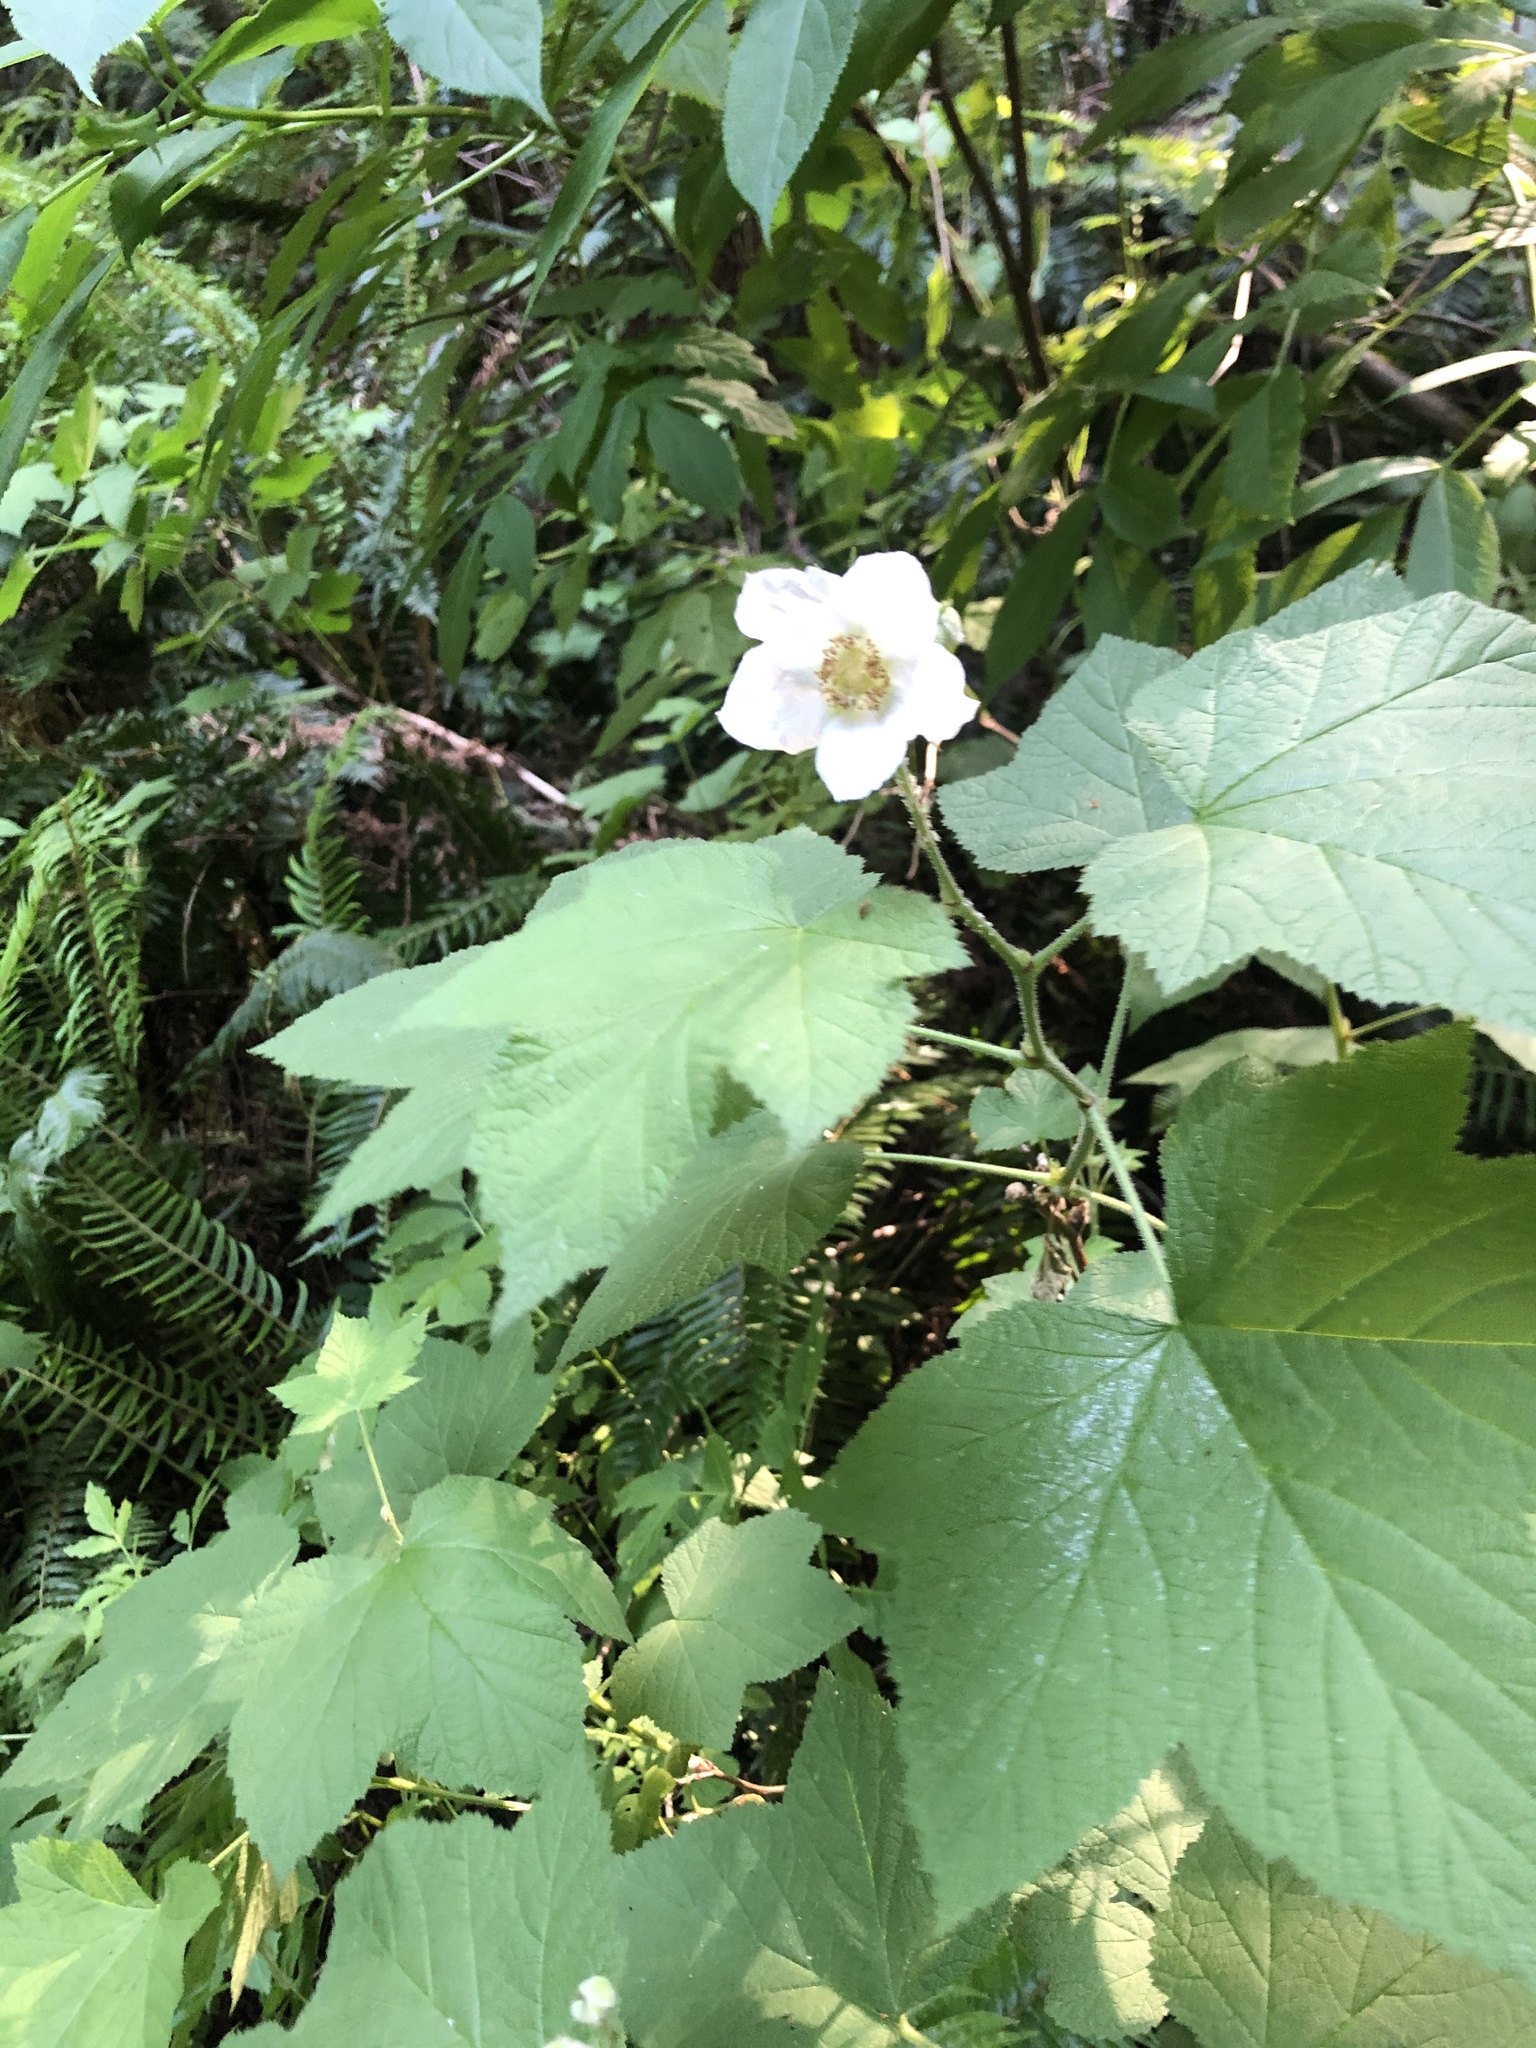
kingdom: Plantae
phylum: Tracheophyta
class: Magnoliopsida
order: Rosales
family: Rosaceae
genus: Rubus
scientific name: Rubus parviflorus
